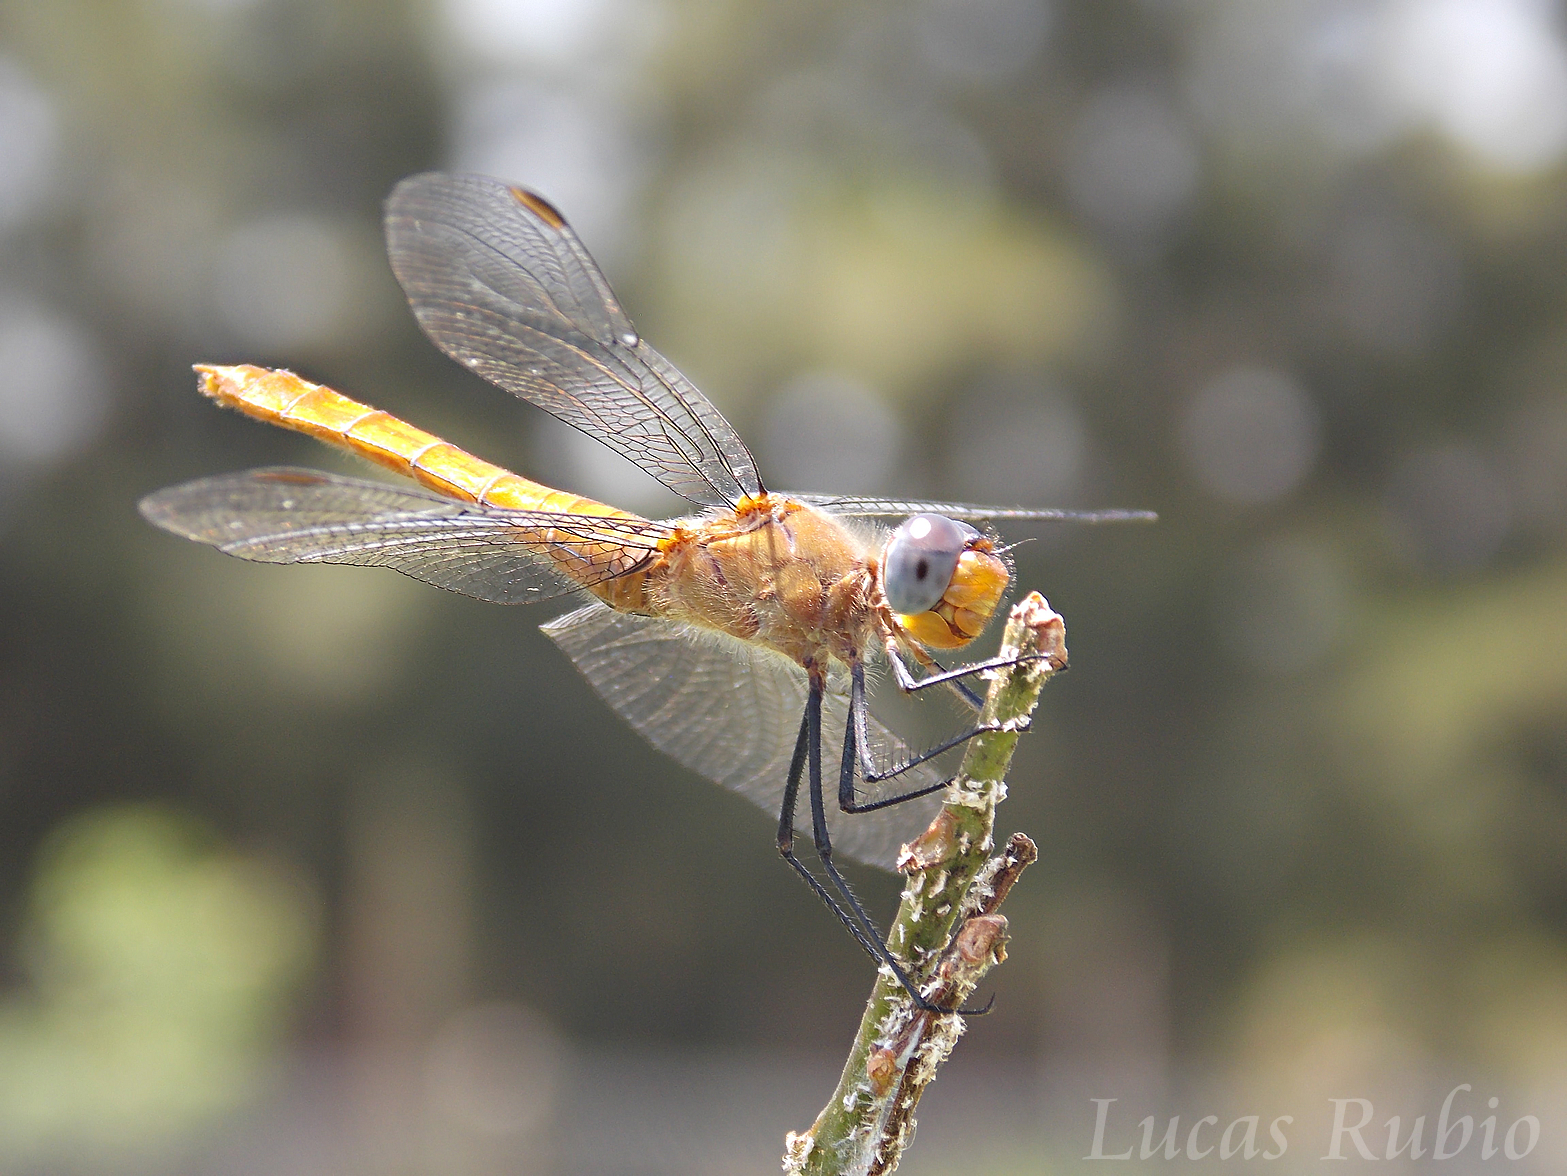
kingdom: Animalia
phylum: Arthropoda
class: Insecta
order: Odonata
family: Libellulidae
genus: Planiplax
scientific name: Planiplax erythropyga
